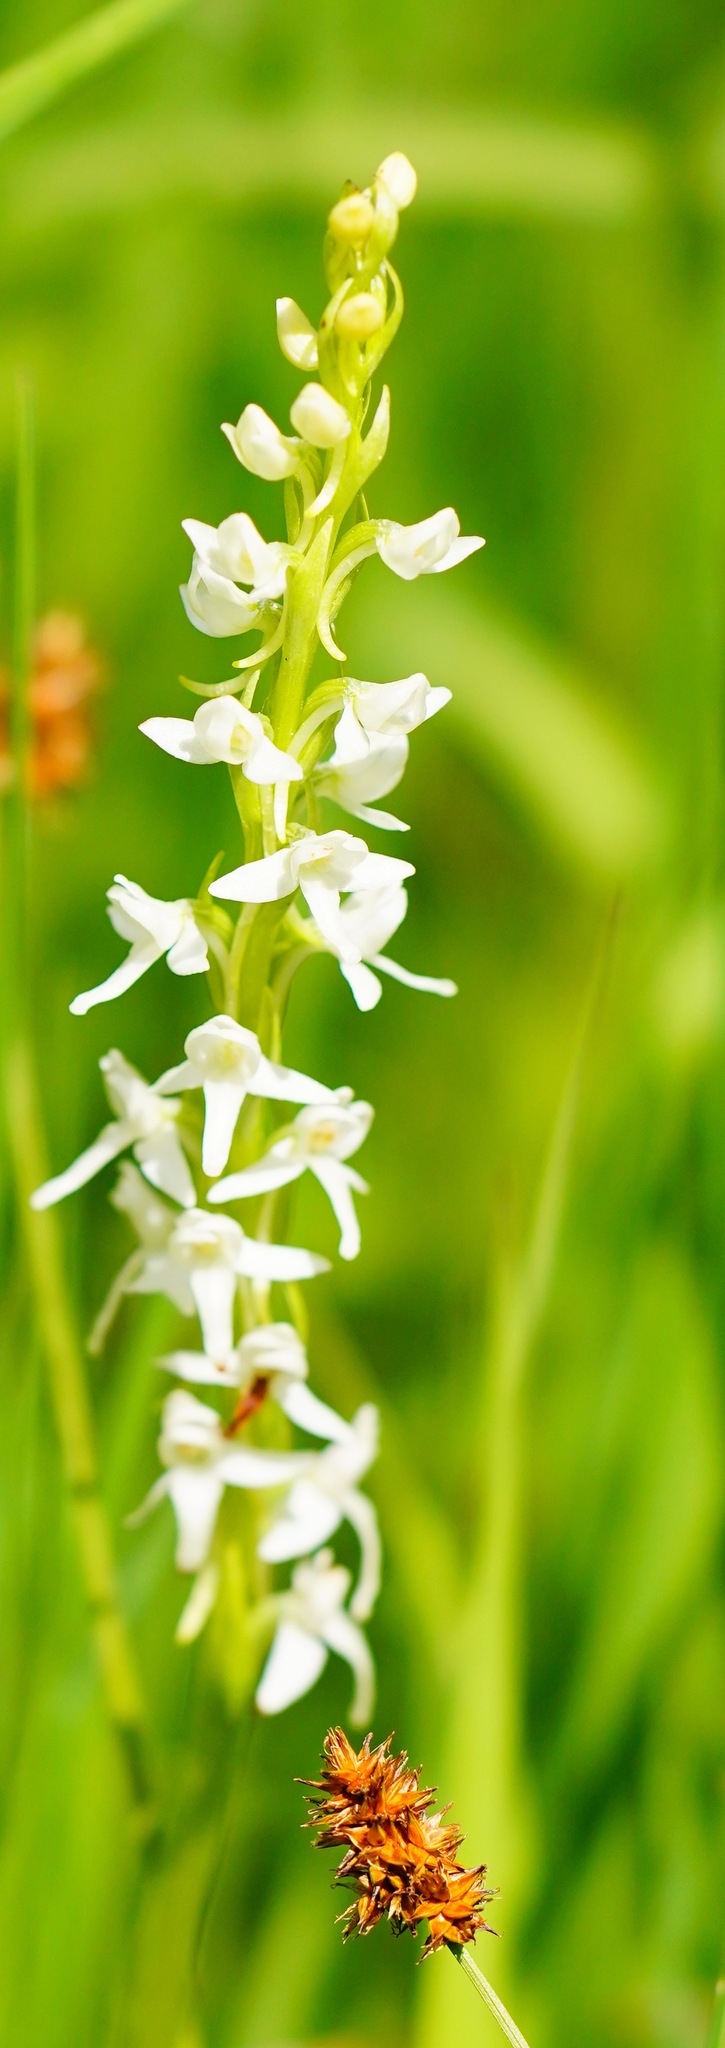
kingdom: Plantae
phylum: Tracheophyta
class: Liliopsida
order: Asparagales
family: Orchidaceae
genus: Platanthera
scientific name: Platanthera dilatata
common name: Bog candles
